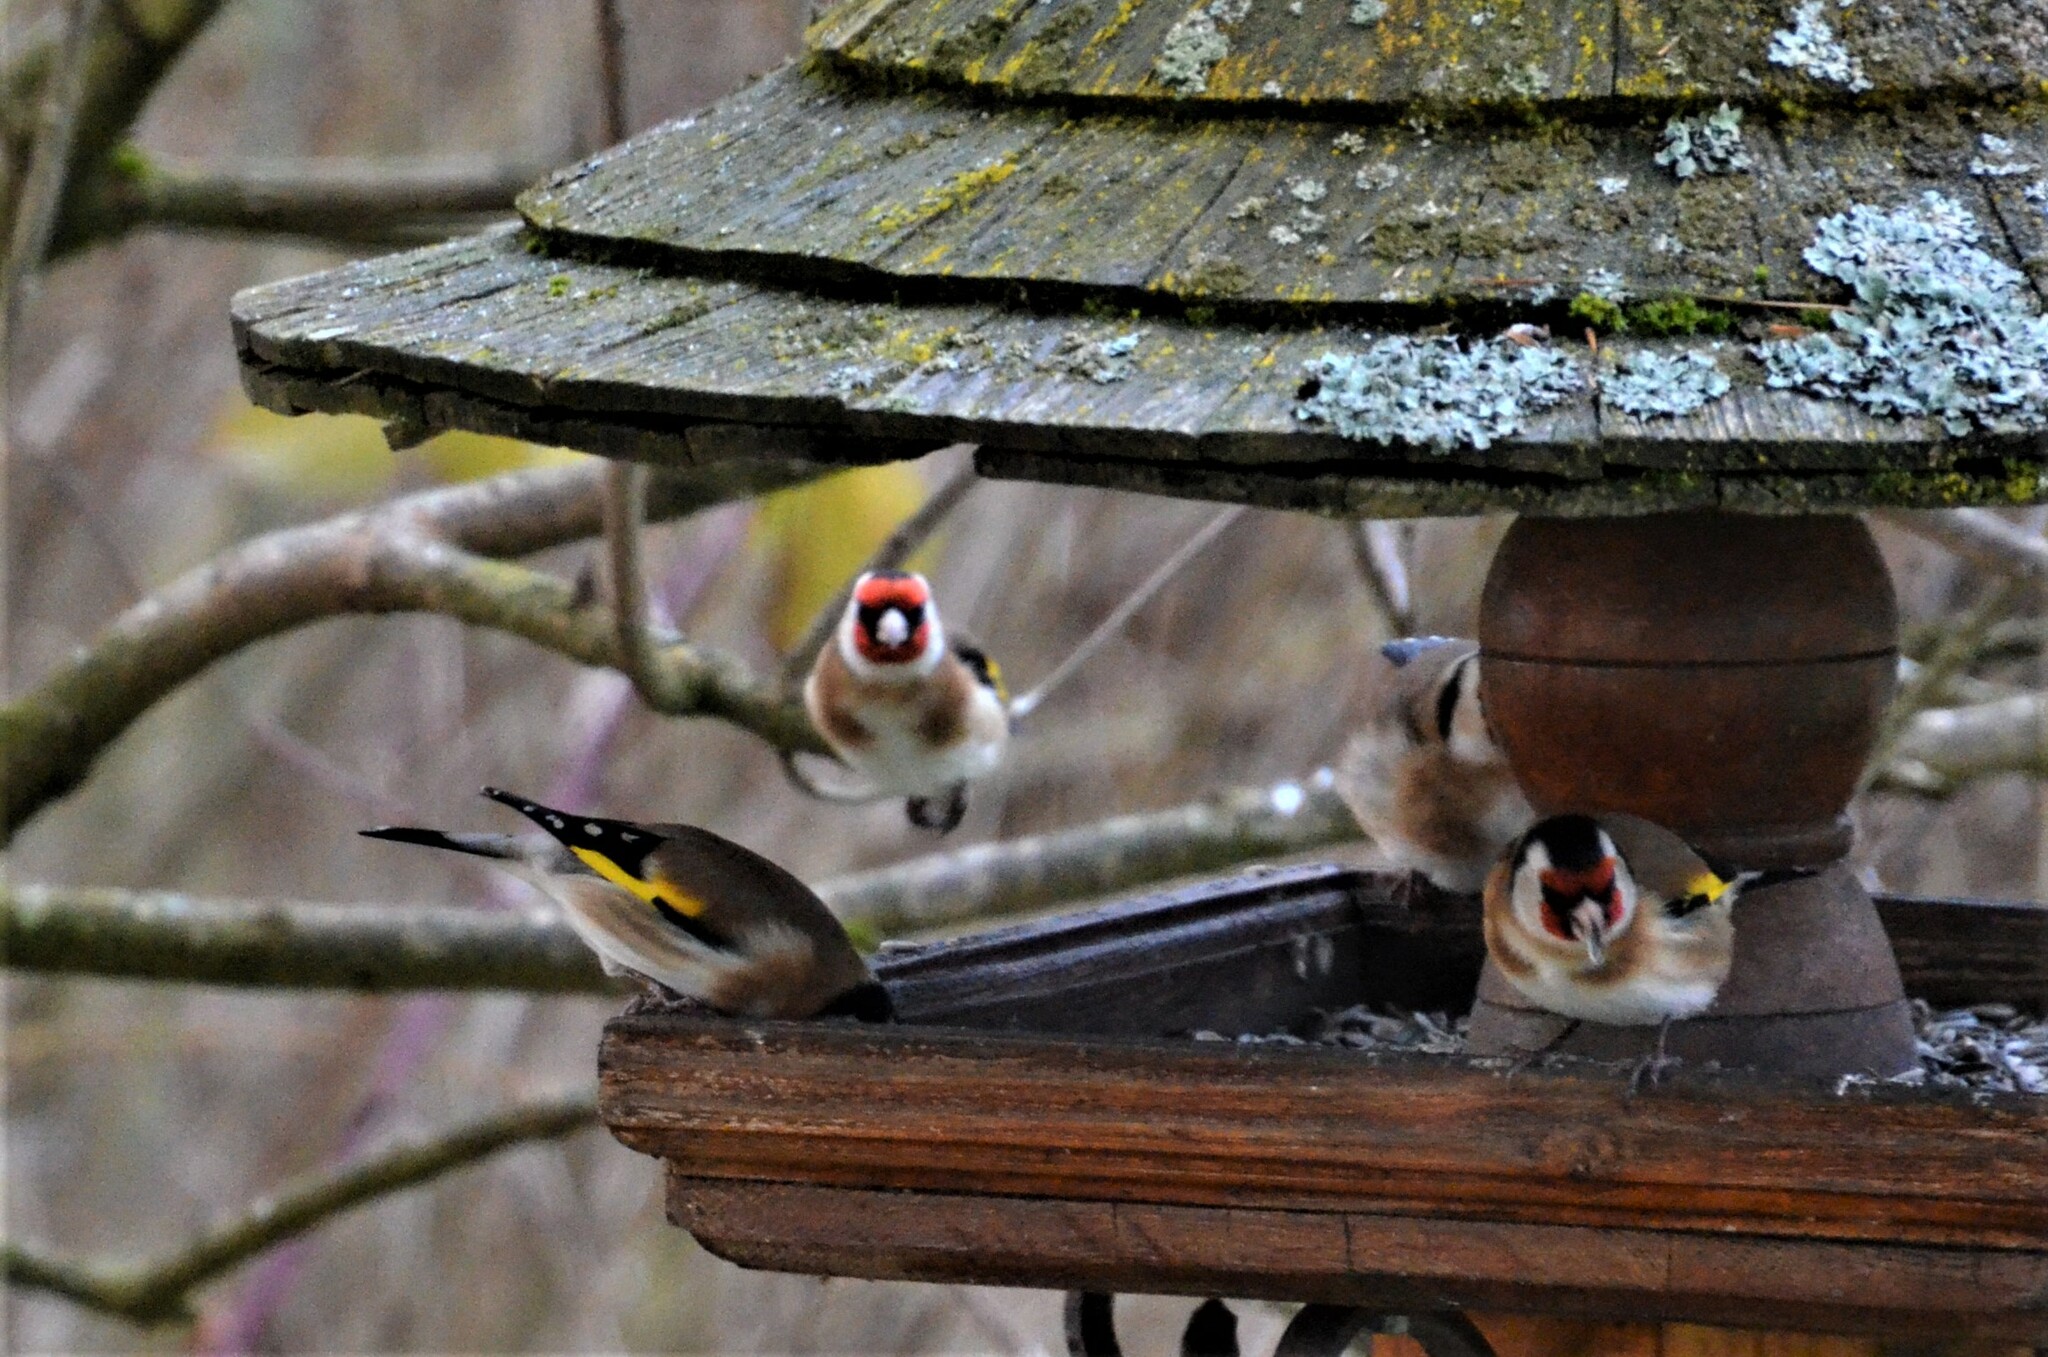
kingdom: Animalia
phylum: Chordata
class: Aves
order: Passeriformes
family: Fringillidae
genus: Carduelis
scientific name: Carduelis carduelis
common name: European goldfinch
